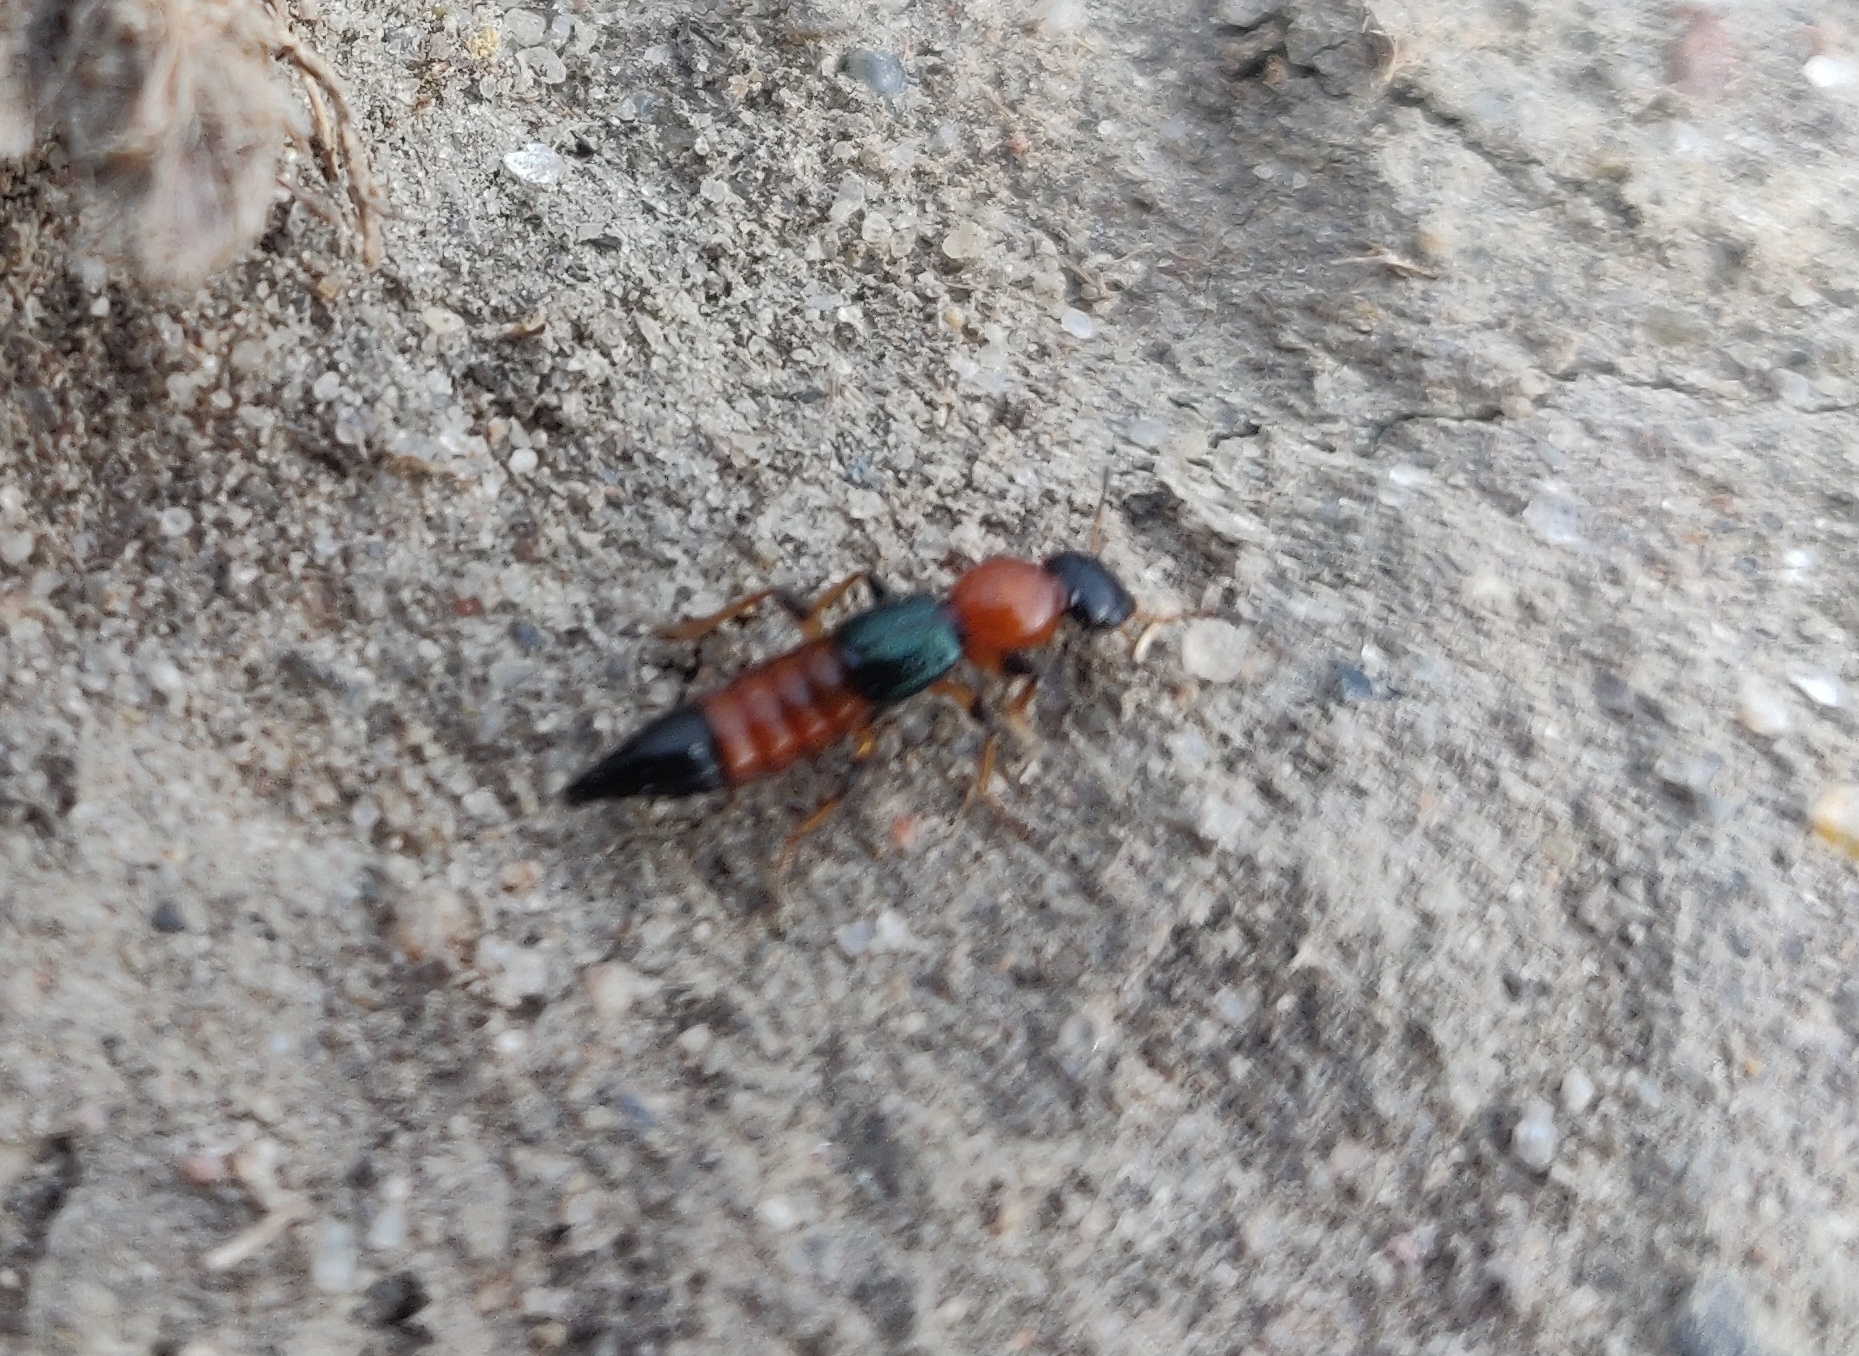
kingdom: Animalia
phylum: Arthropoda
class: Insecta
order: Coleoptera
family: Staphylinidae
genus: Paederus
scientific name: Paederus littoralis
